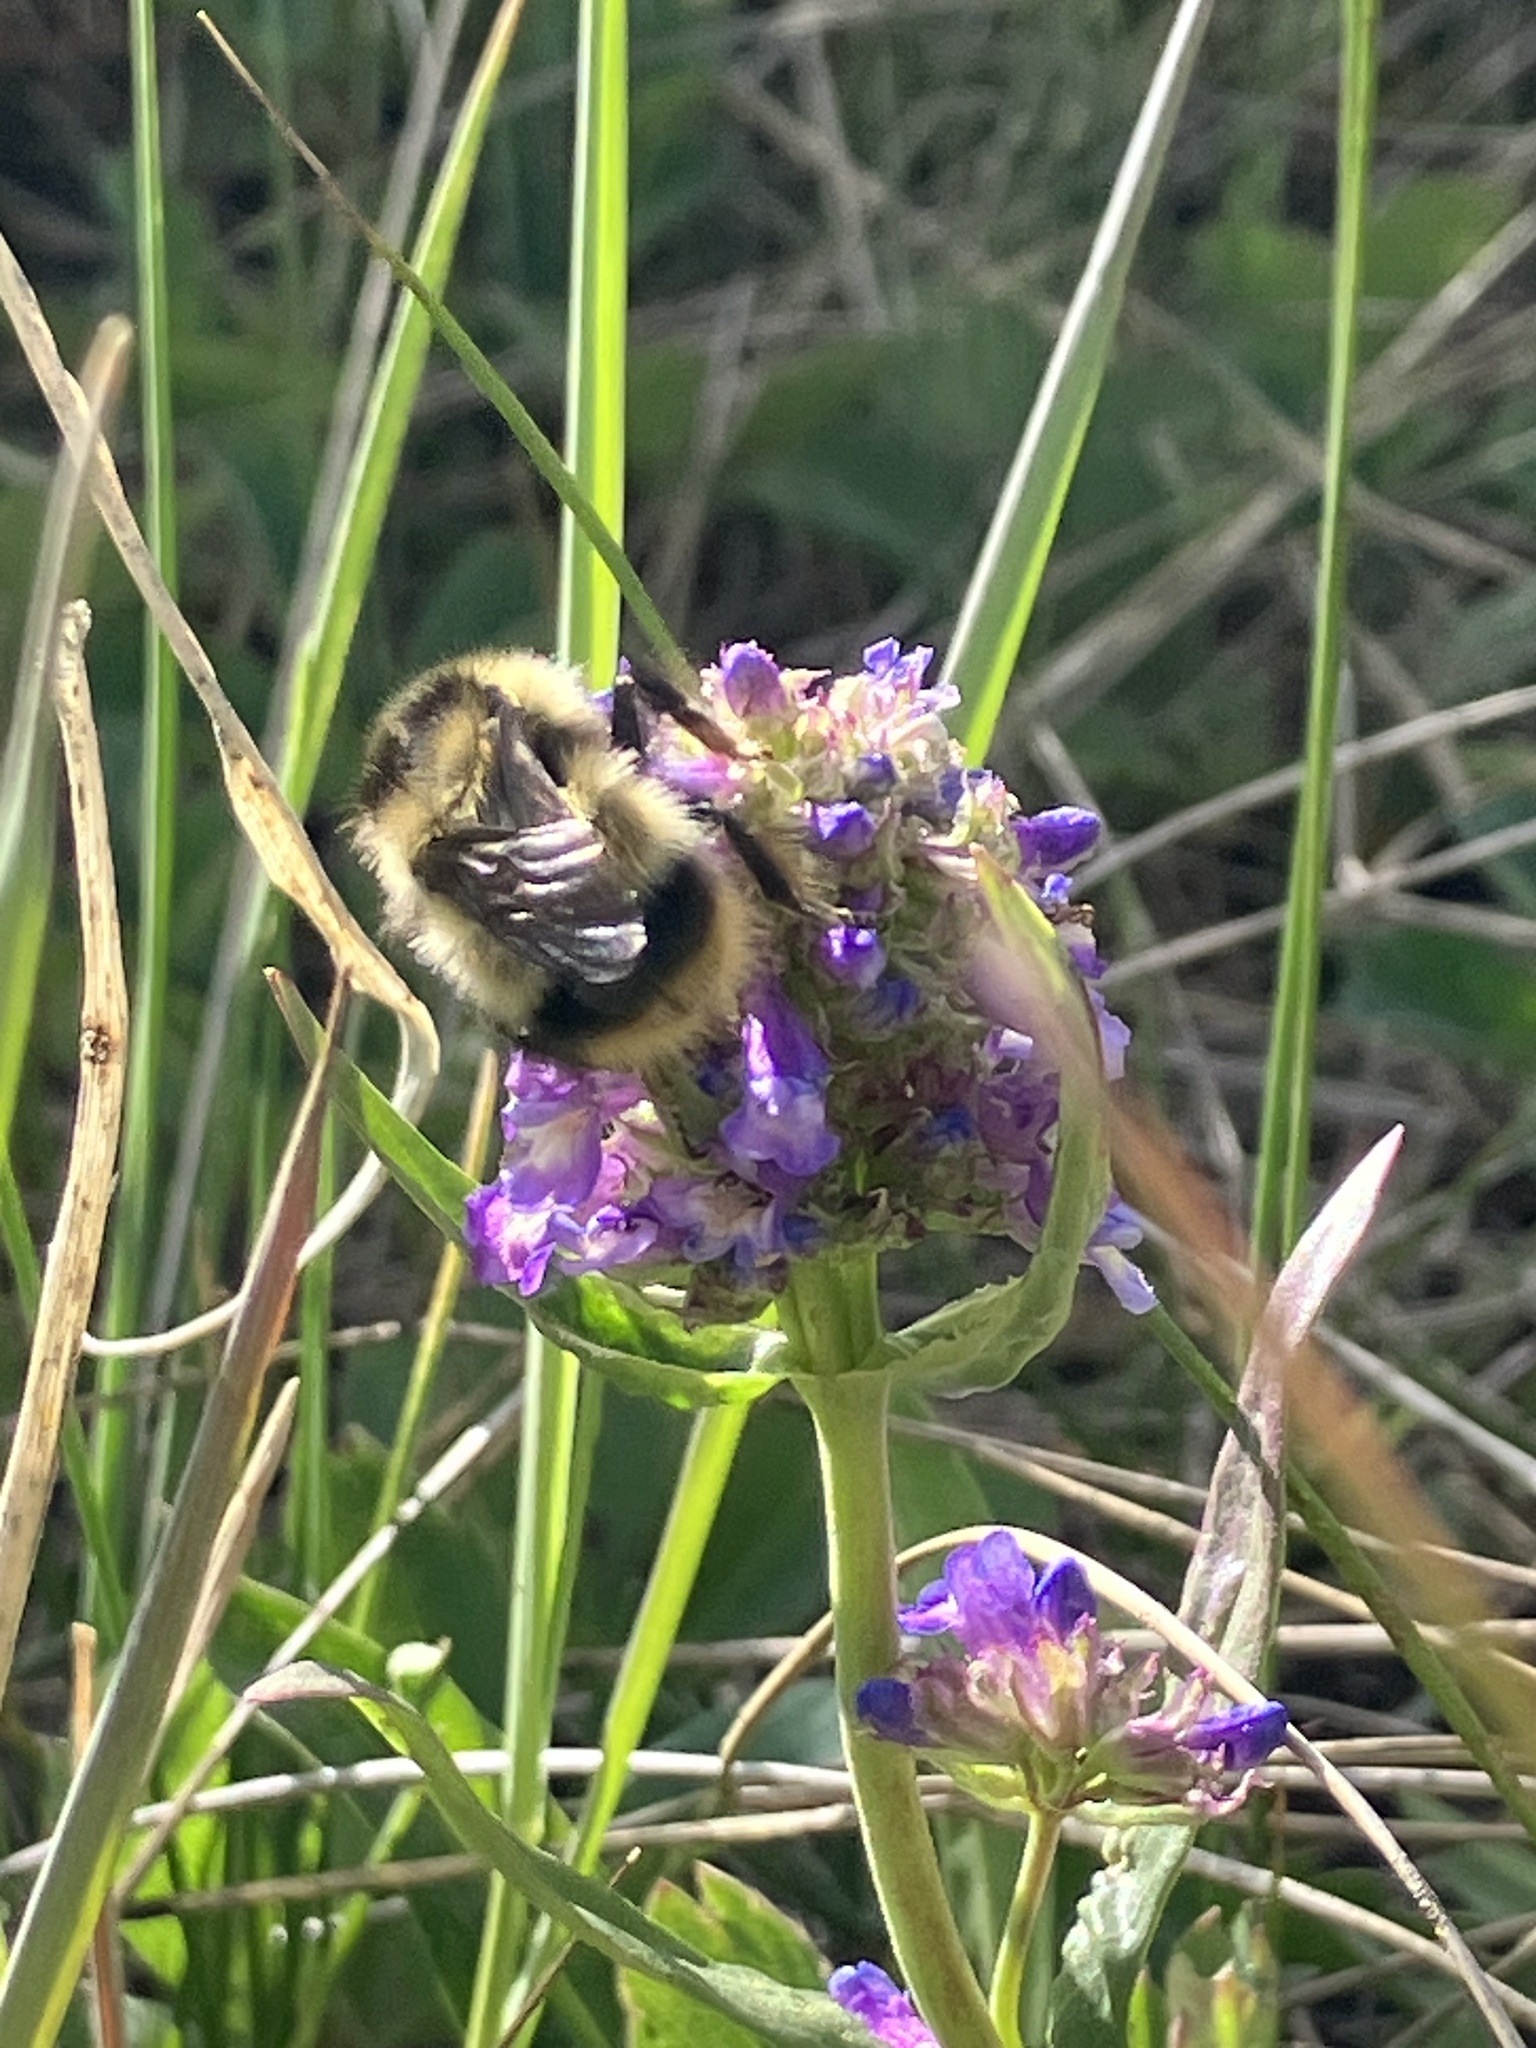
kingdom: Animalia
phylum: Arthropoda
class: Insecta
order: Hymenoptera
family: Apidae
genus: Bombus
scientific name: Bombus frigidus
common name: Frigid bumble bee
